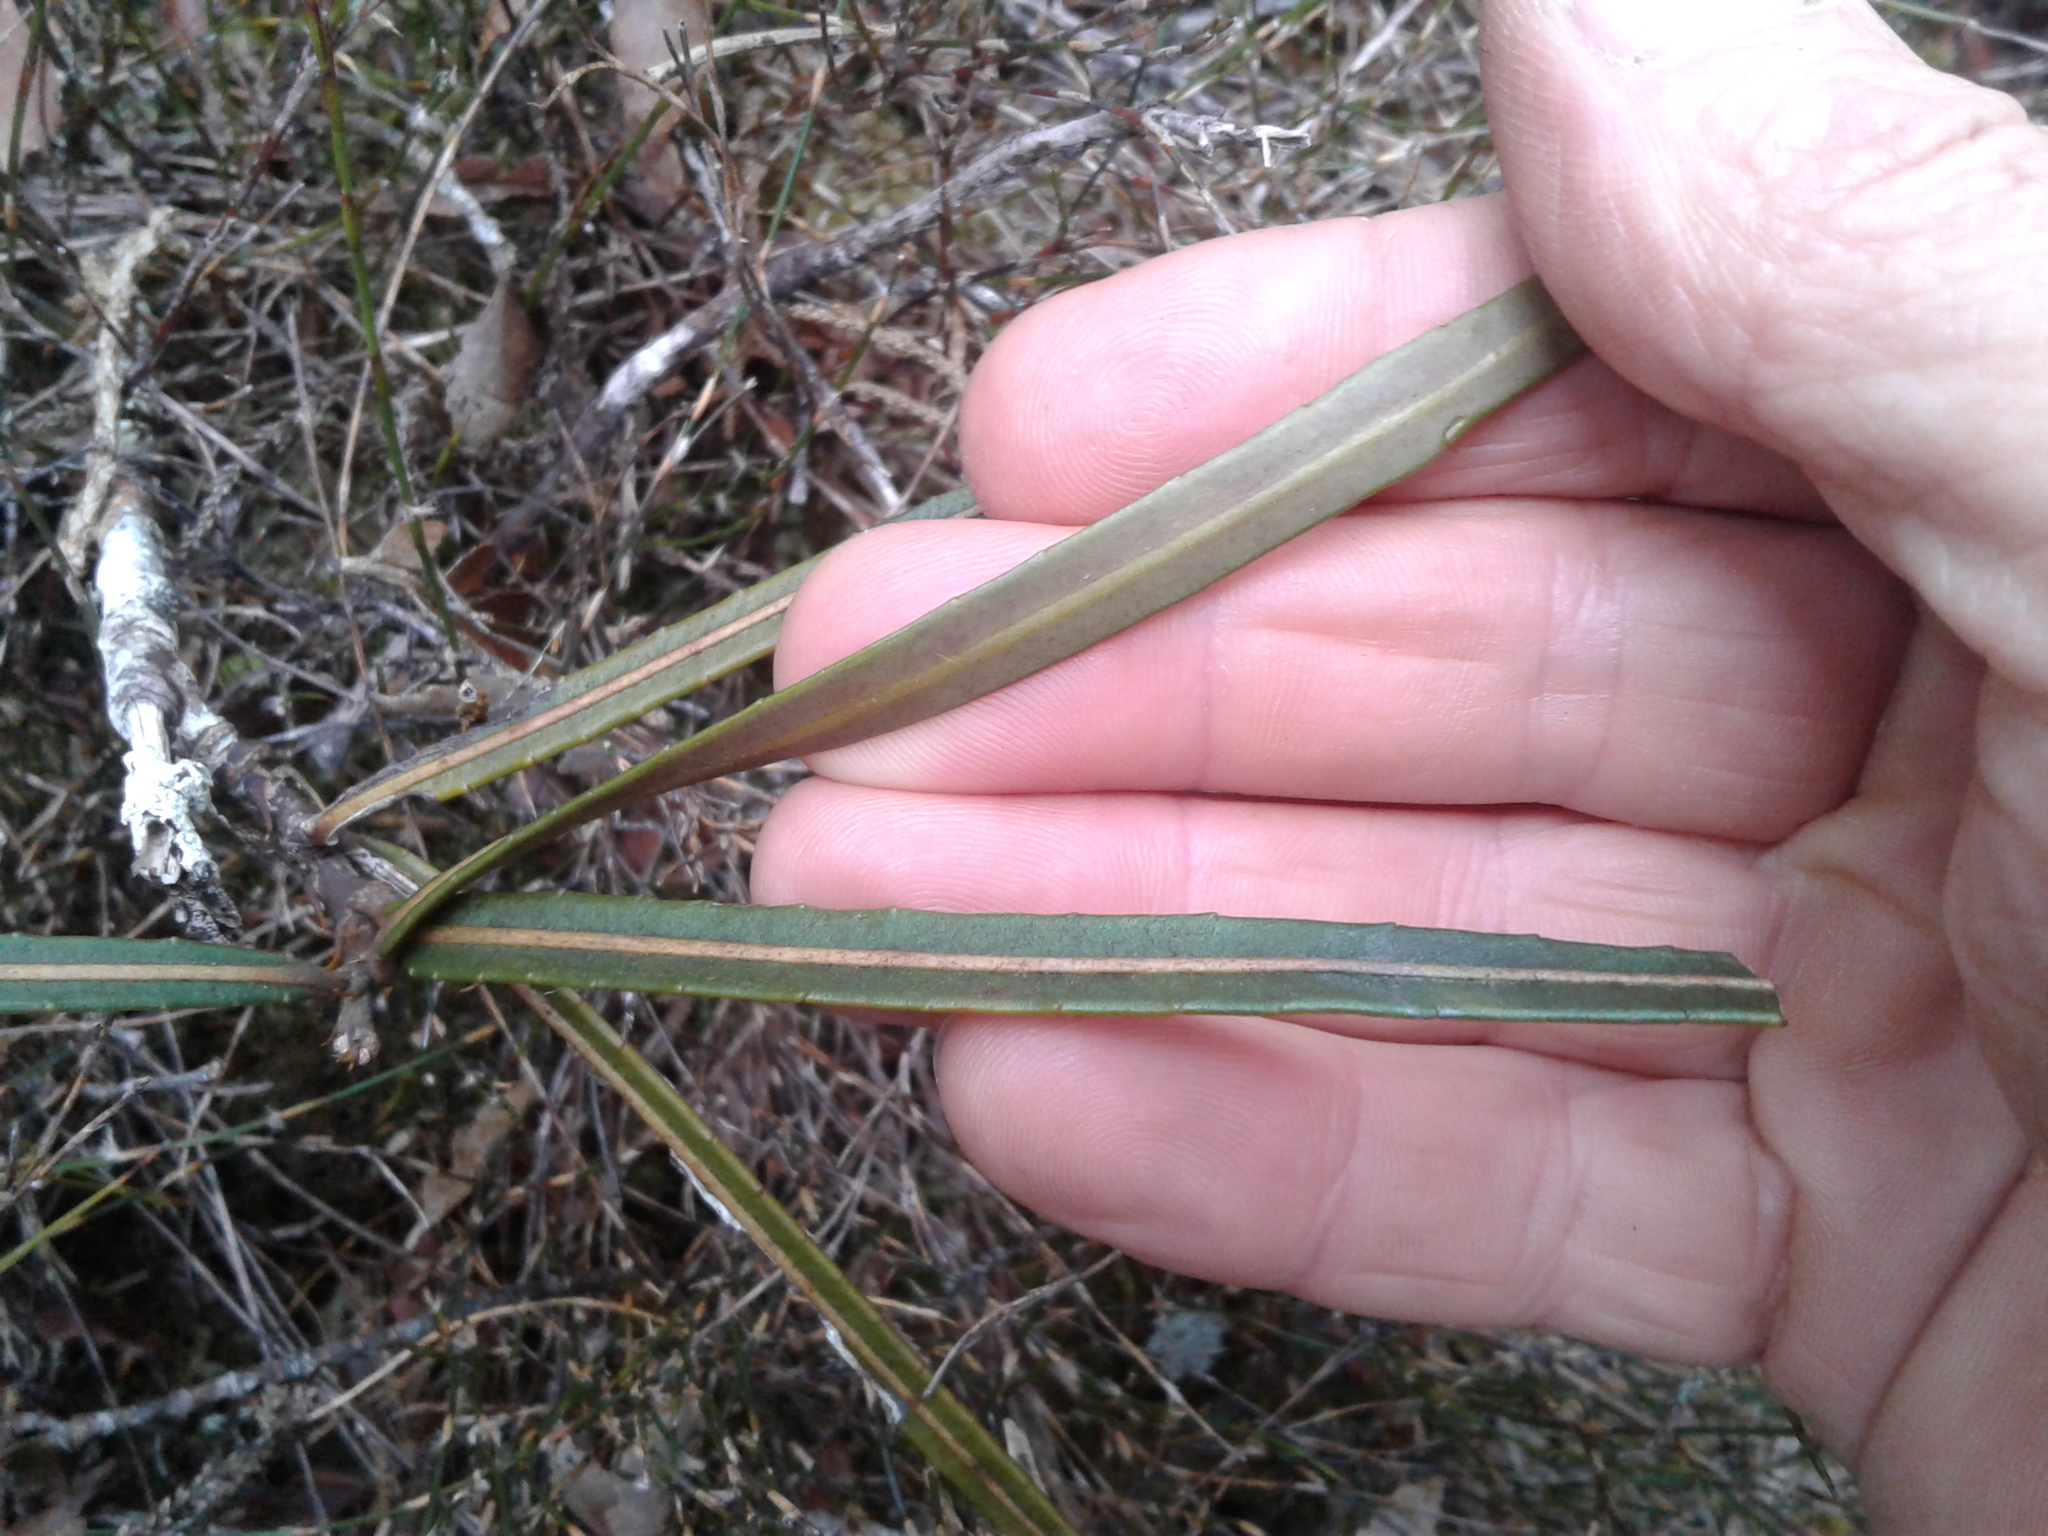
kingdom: Plantae
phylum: Tracheophyta
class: Magnoliopsida
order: Apiales
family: Araliaceae
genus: Pseudopanax
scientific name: Pseudopanax linearis
